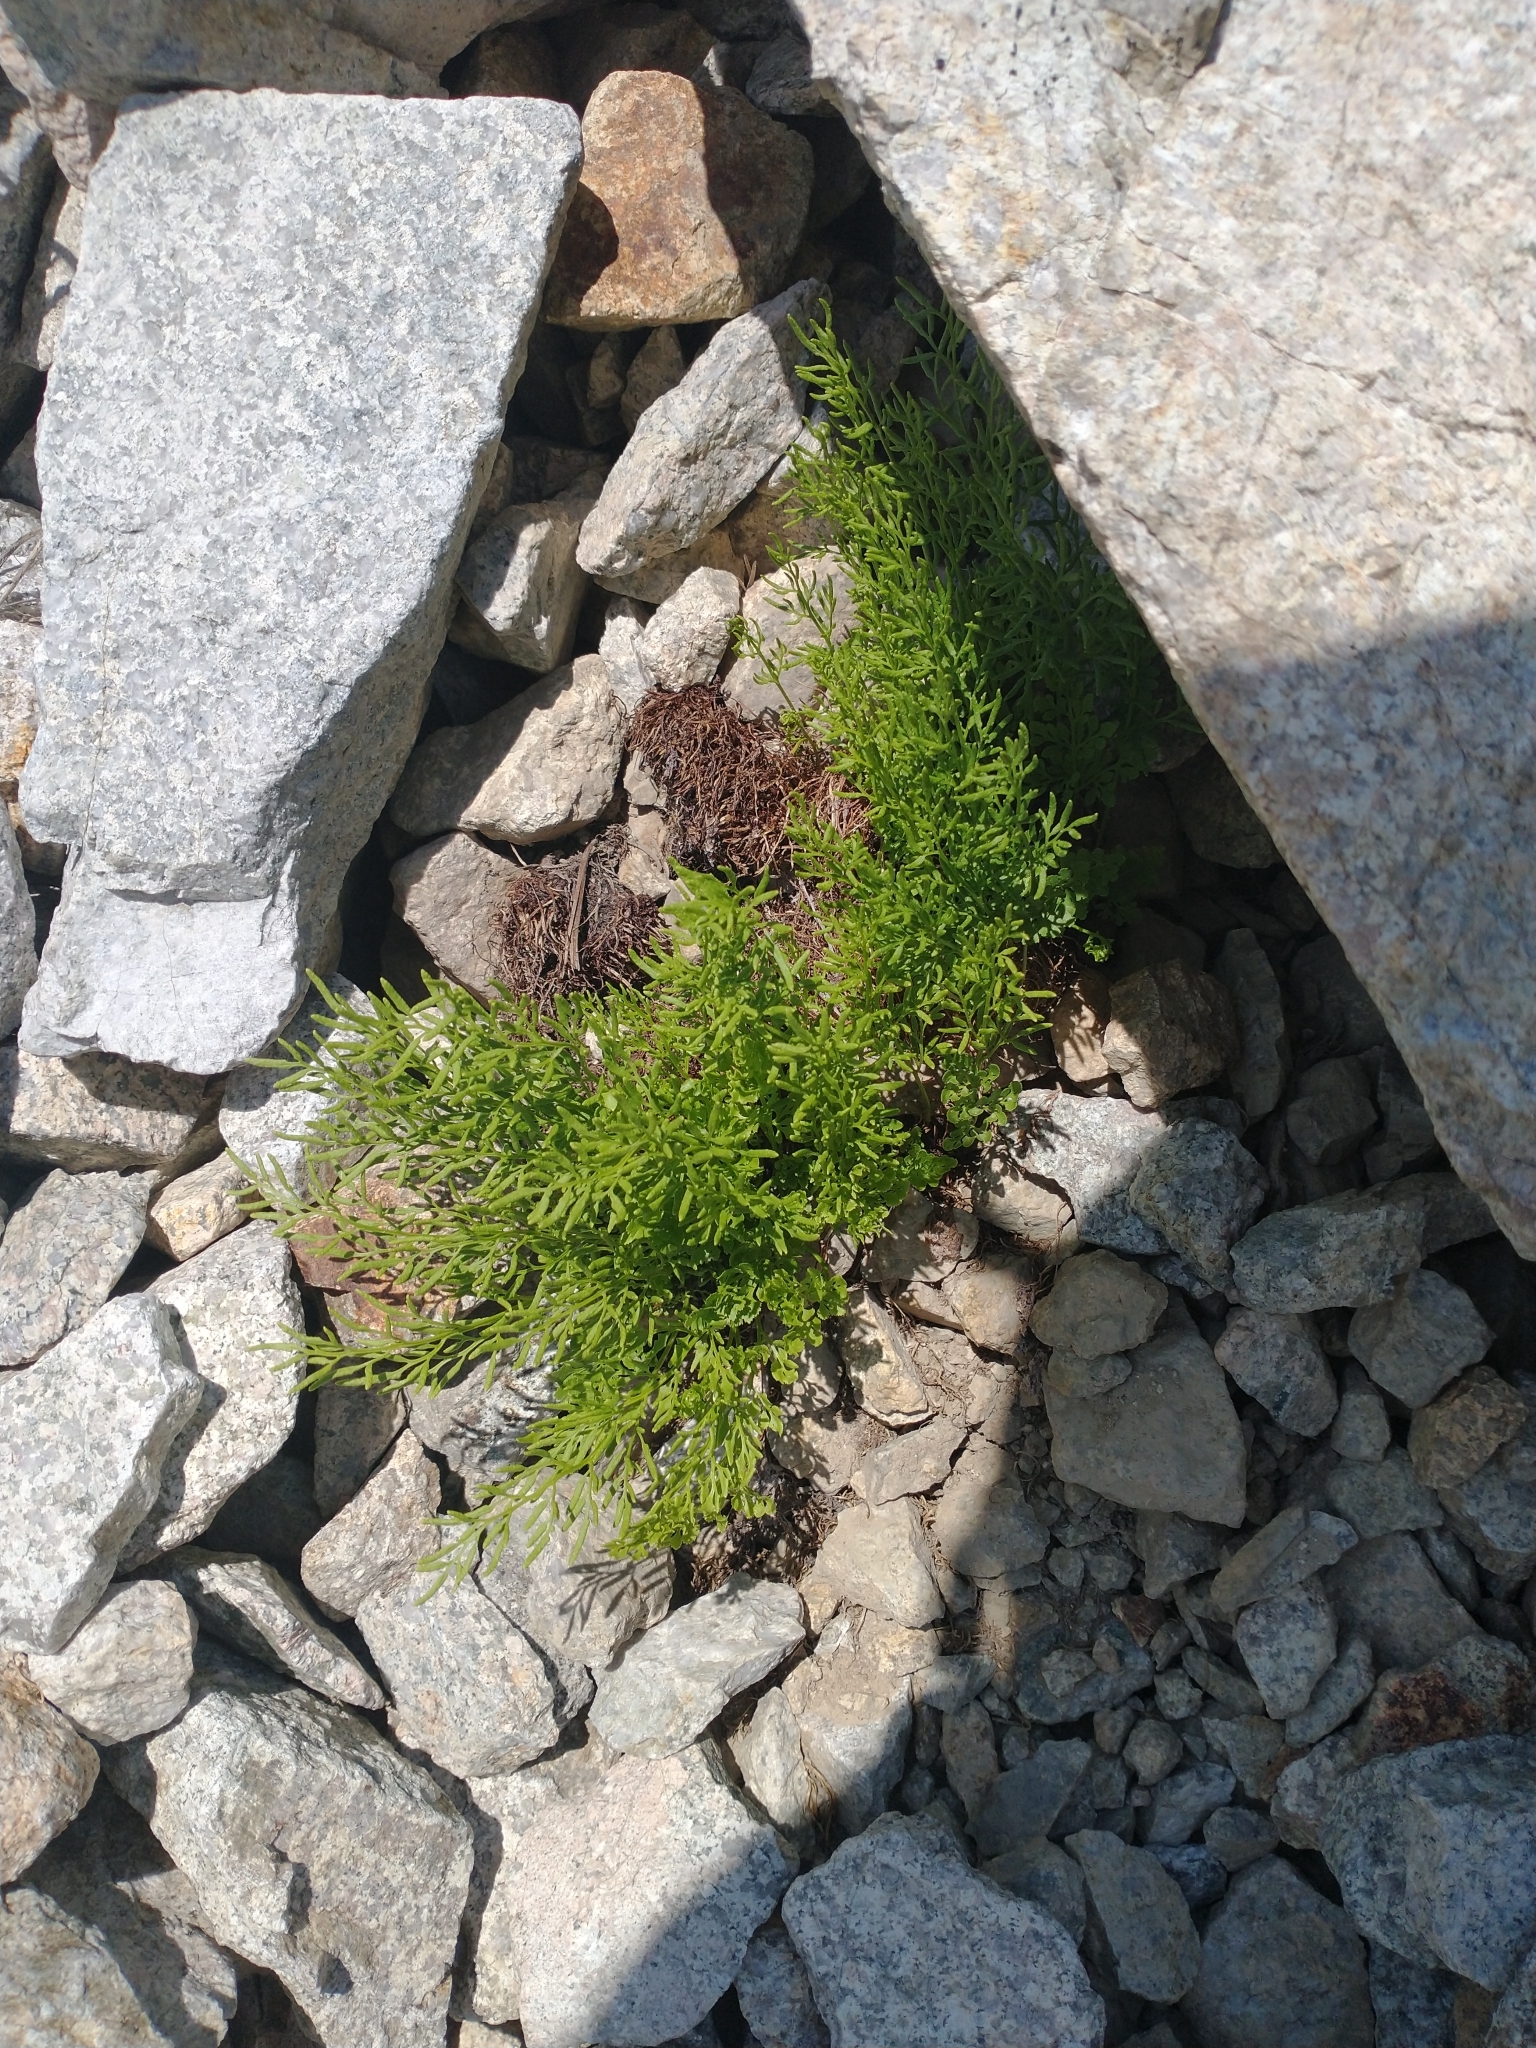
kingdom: Plantae
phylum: Tracheophyta
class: Polypodiopsida
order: Polypodiales
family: Pteridaceae
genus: Cryptogramma
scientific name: Cryptogramma cascadensis
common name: Cascade parsley fern
